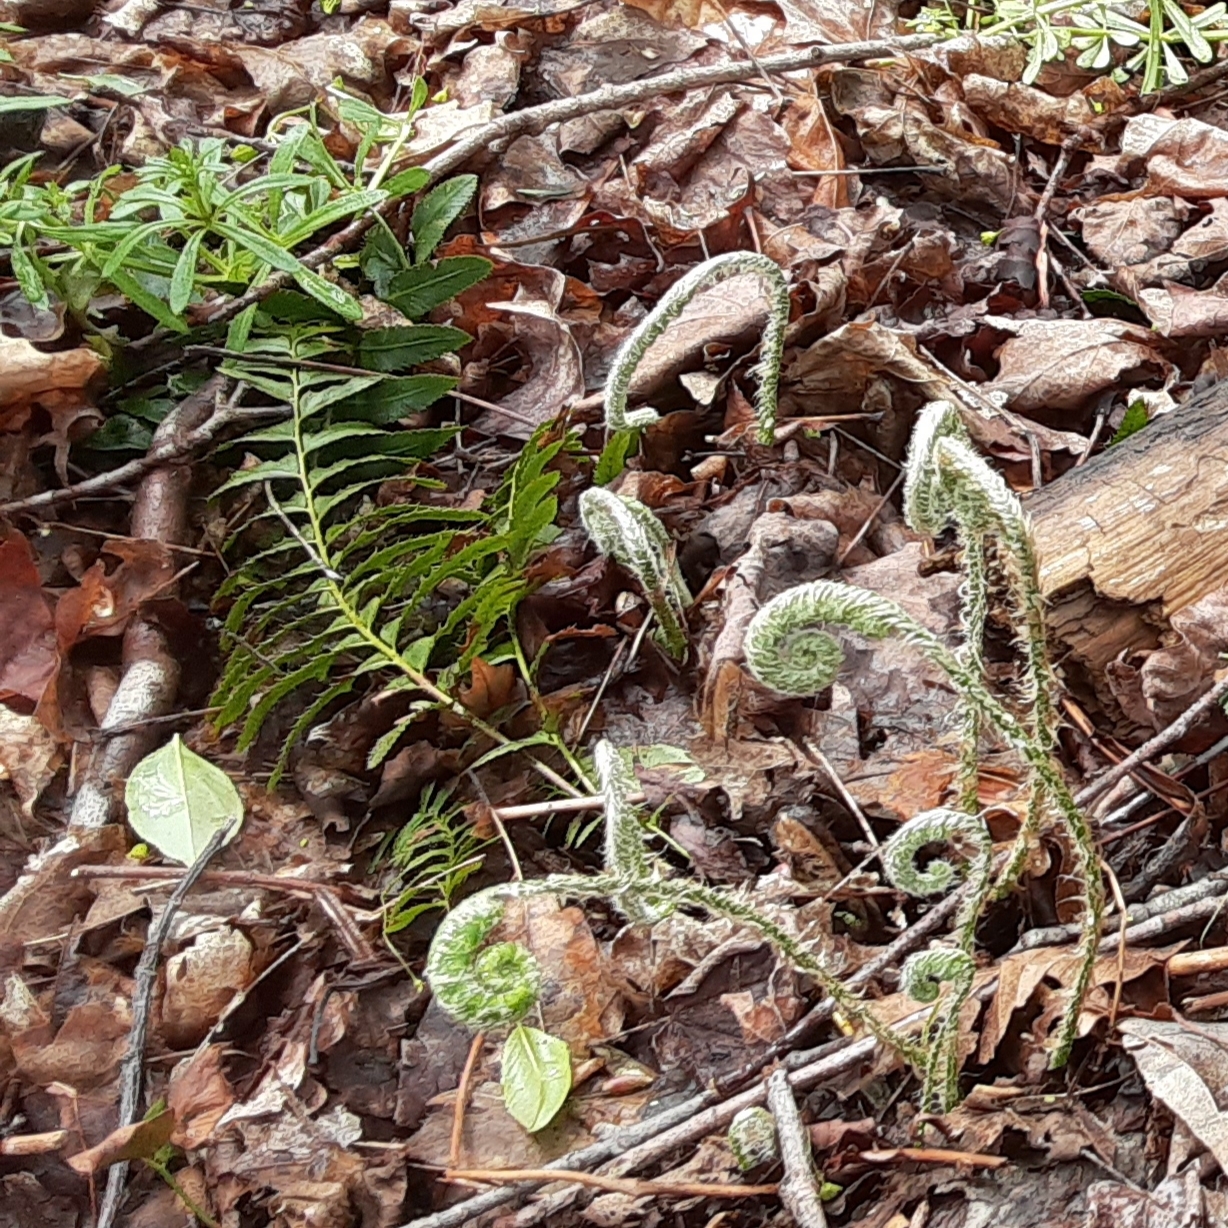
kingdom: Plantae
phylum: Tracheophyta
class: Polypodiopsida
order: Polypodiales
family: Dryopteridaceae
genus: Polystichum
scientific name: Polystichum acrostichoides
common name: Christmas fern
